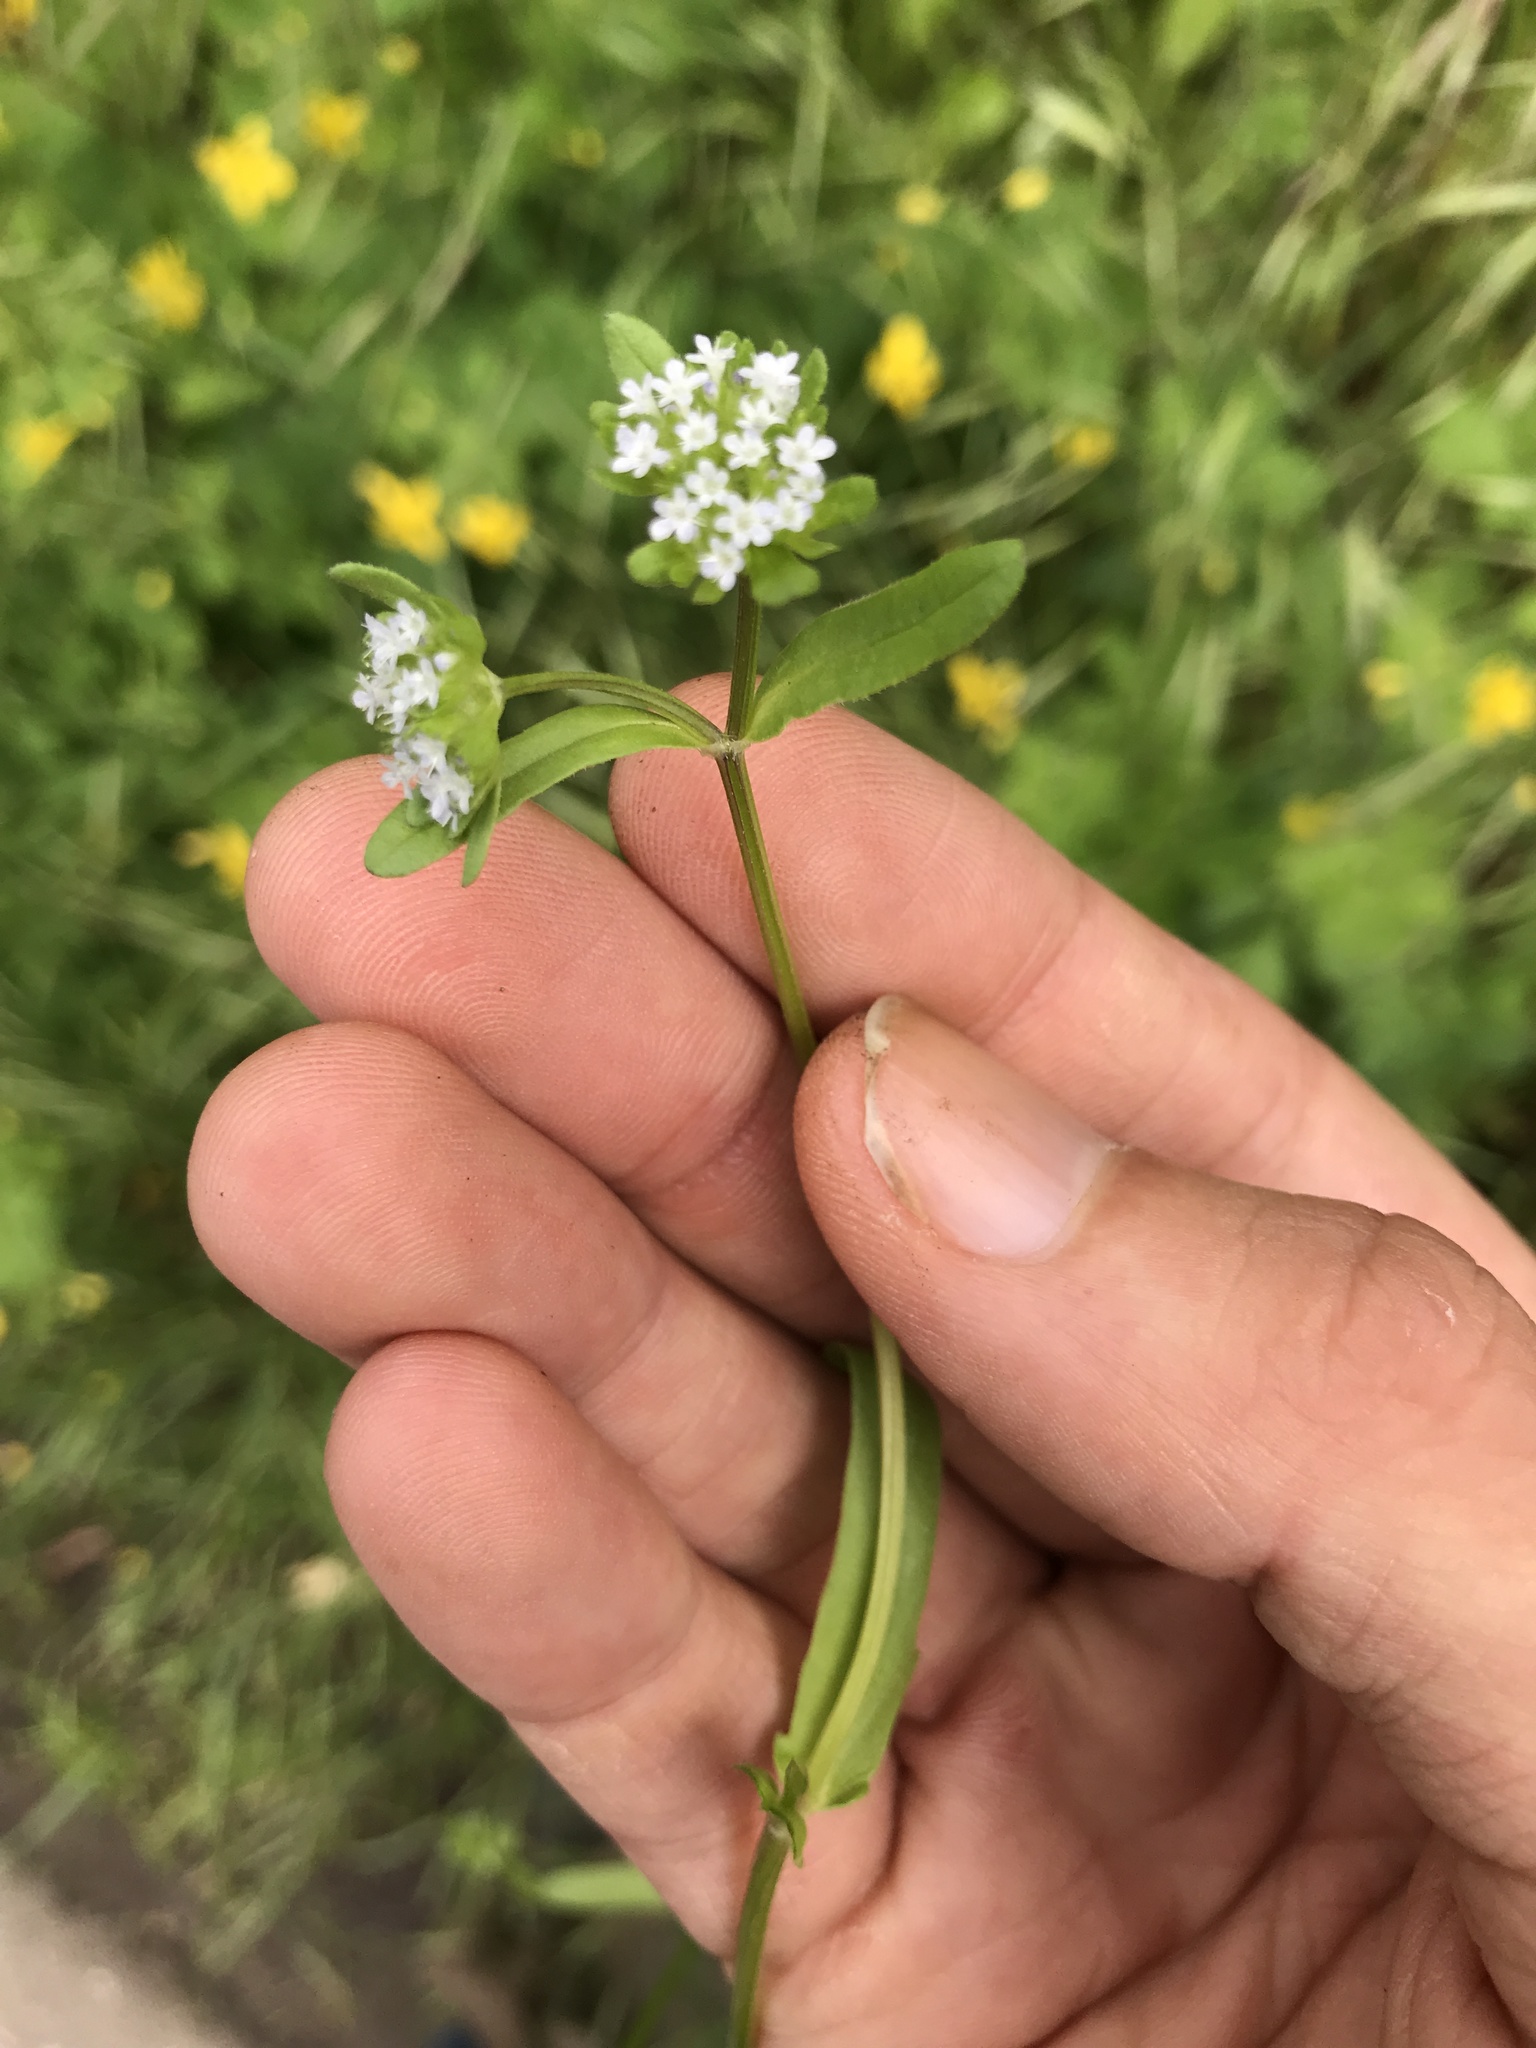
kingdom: Plantae
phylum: Tracheophyta
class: Magnoliopsida
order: Dipsacales
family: Caprifoliaceae
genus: Valerianella
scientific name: Valerianella locusta
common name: Common cornsalad
